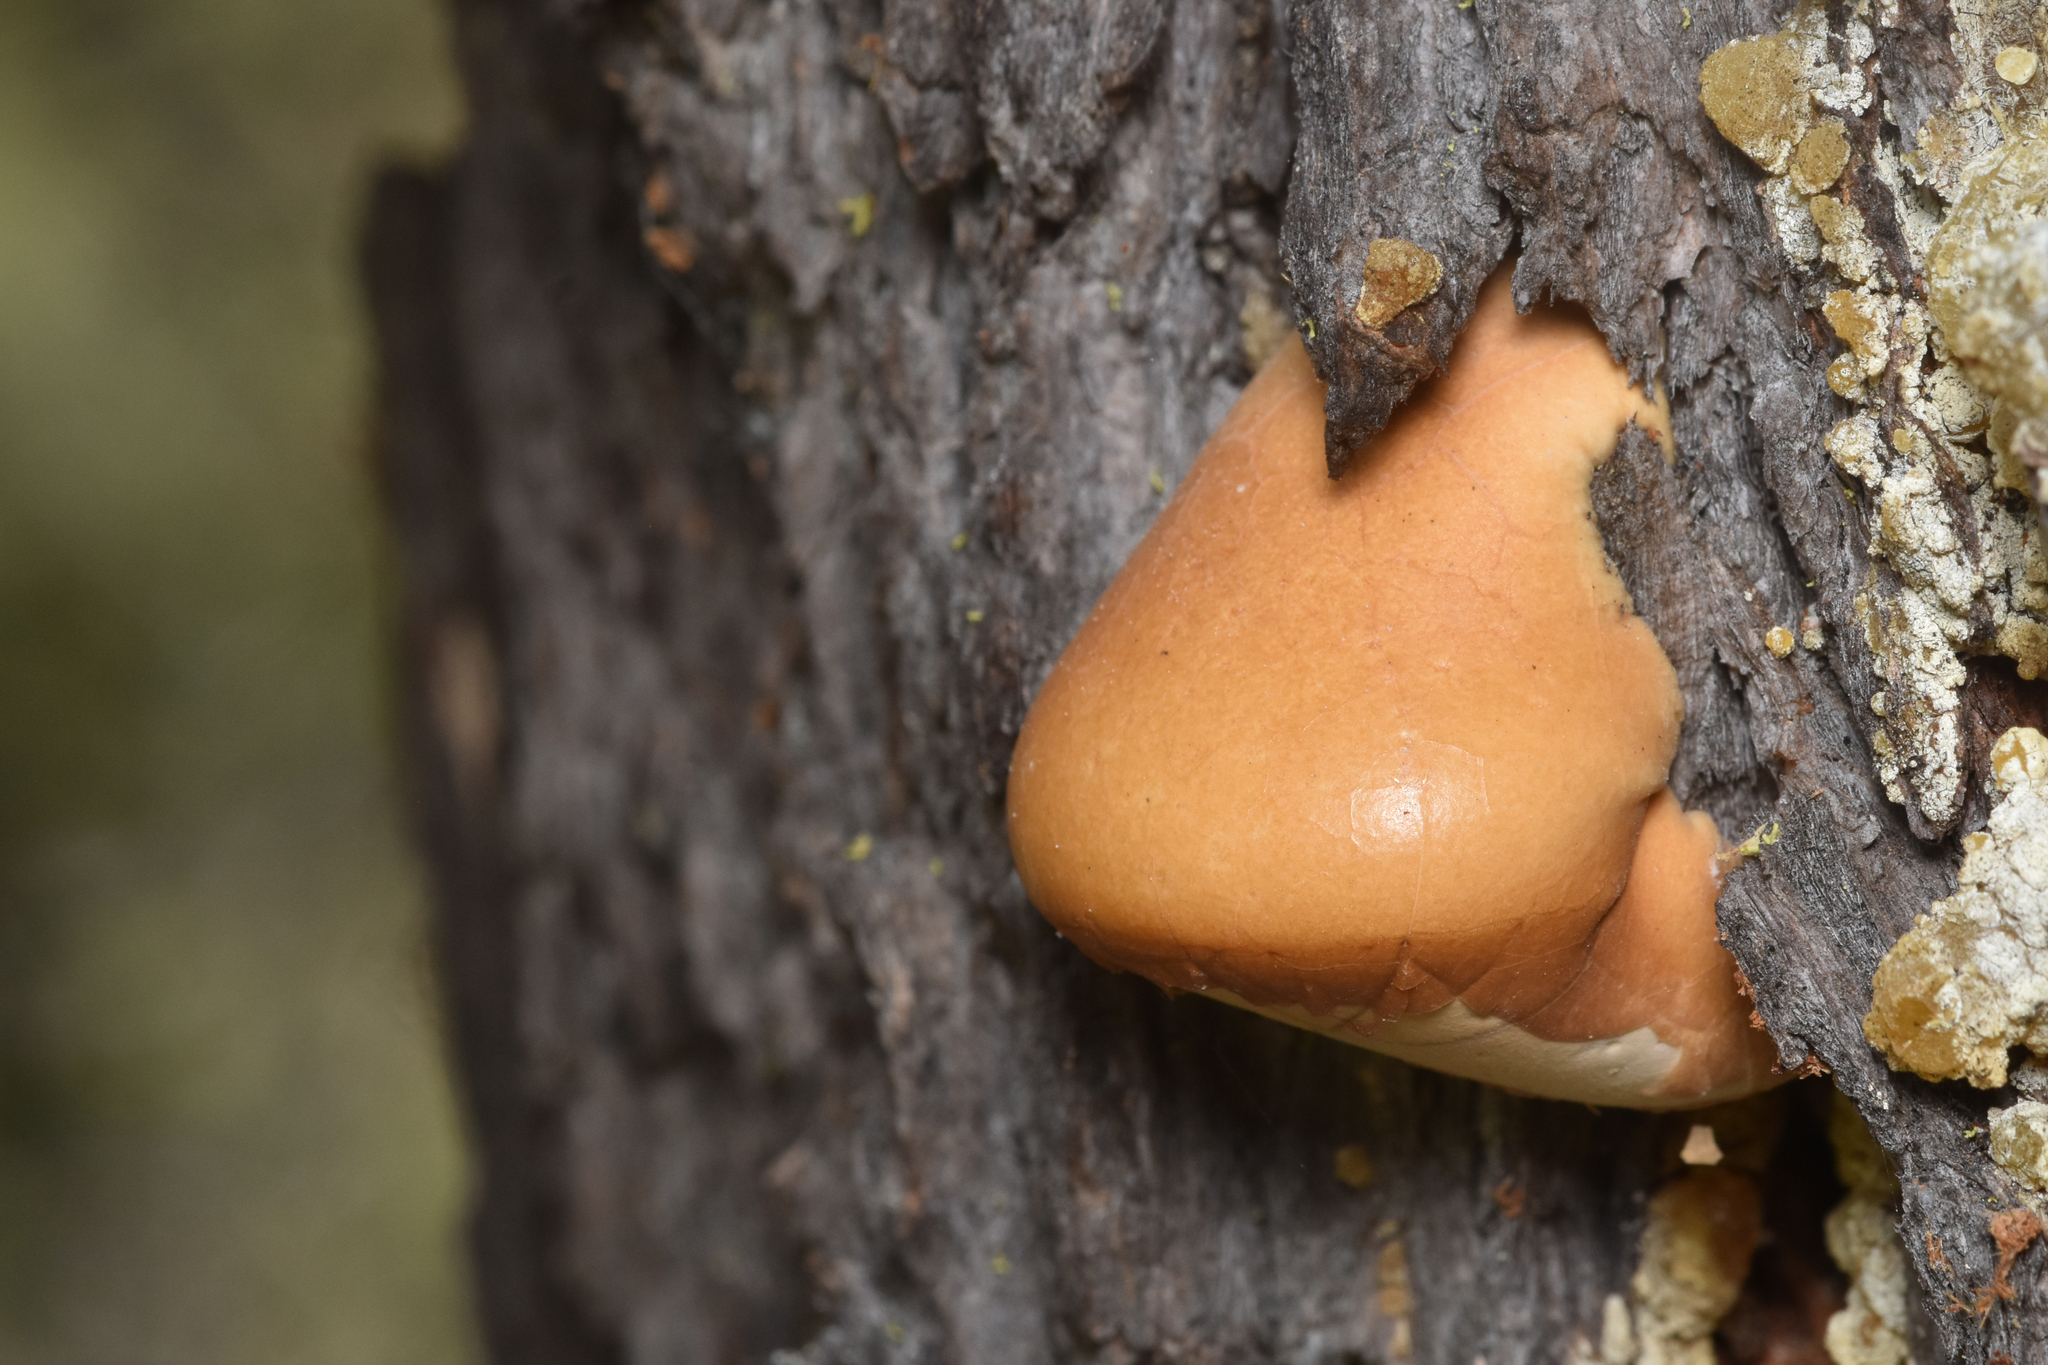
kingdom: Fungi
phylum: Basidiomycota
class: Agaricomycetes
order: Polyporales
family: Polyporaceae
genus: Cryptoporus
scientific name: Cryptoporus volvatus
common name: Veiled polypore
